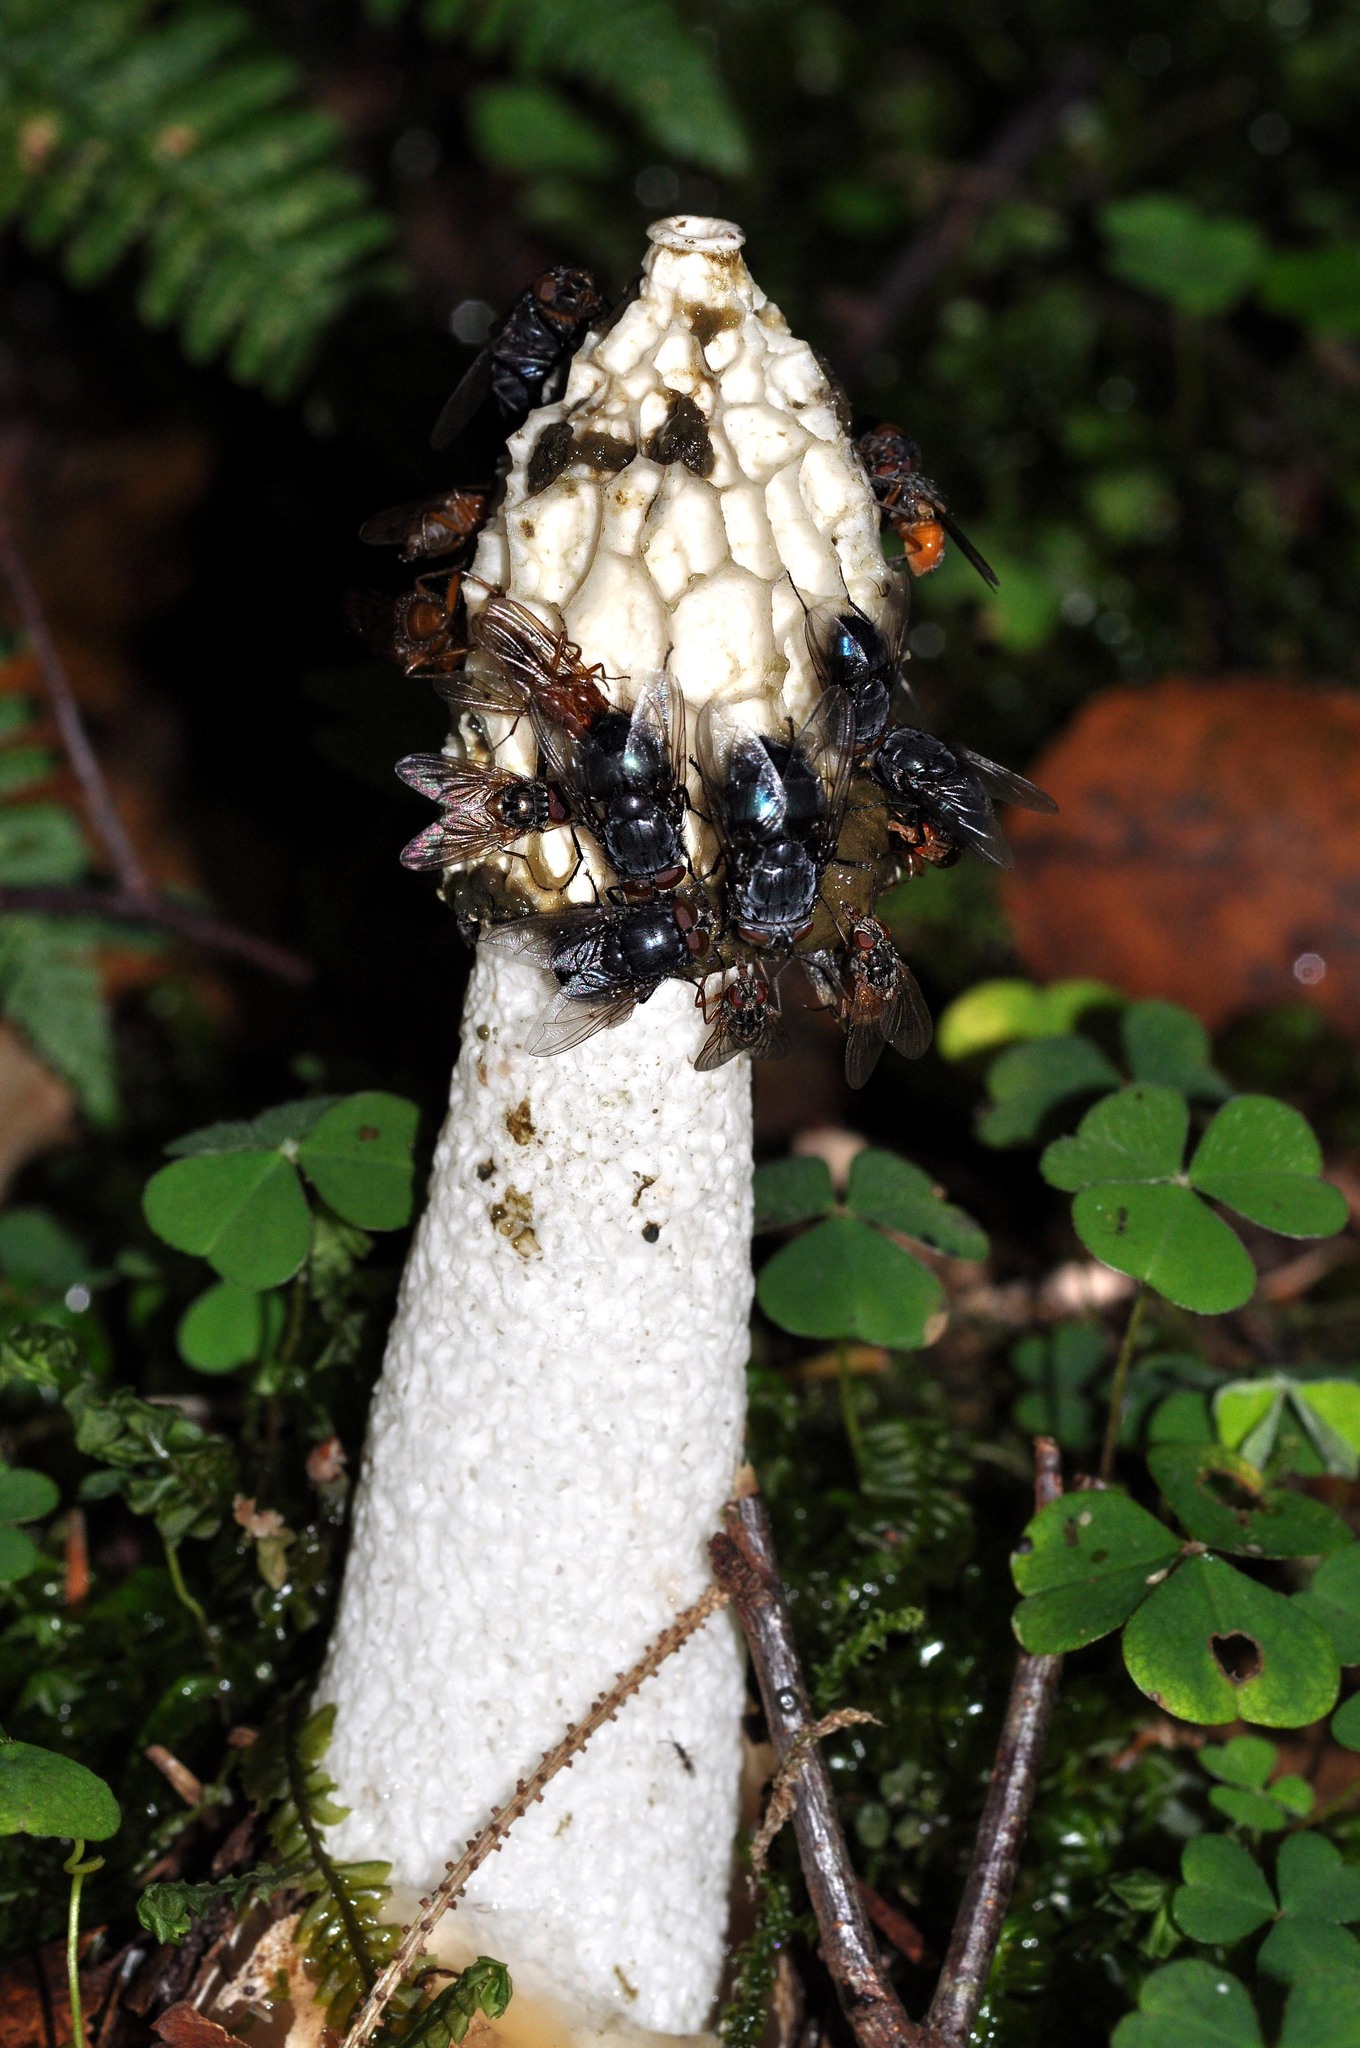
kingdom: Fungi
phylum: Basidiomycota
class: Agaricomycetes
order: Phallales
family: Phallaceae
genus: Phallus
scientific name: Phallus impudicus
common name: Common stinkhorn
